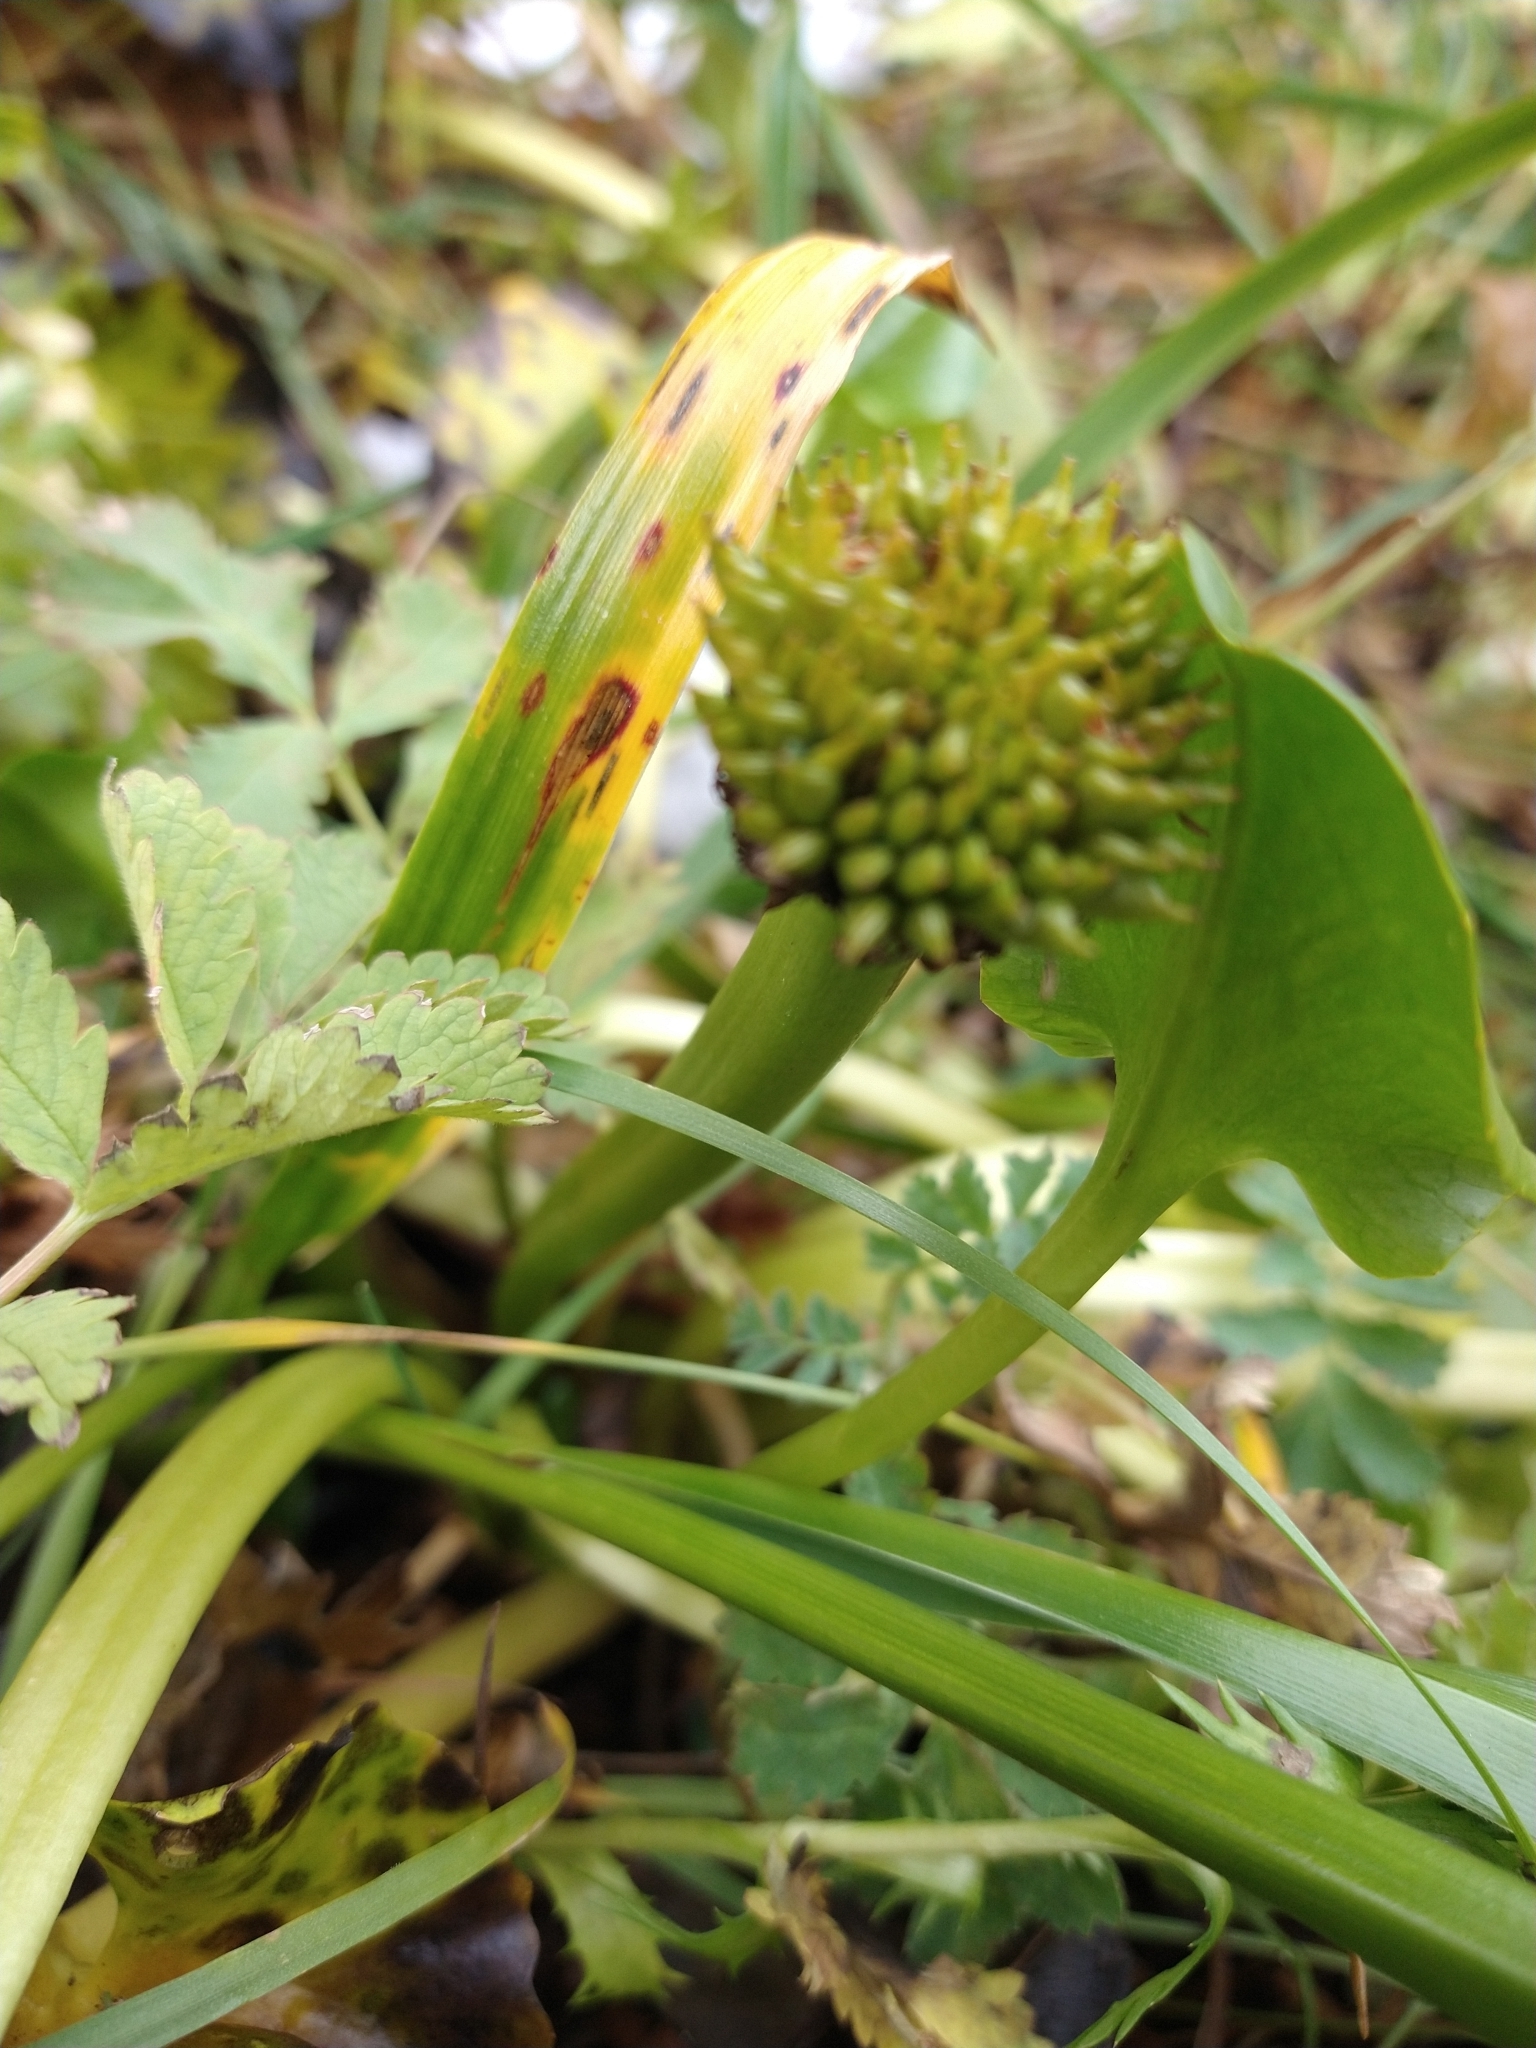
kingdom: Plantae
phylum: Tracheophyta
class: Magnoliopsida
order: Ranunculales
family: Ranunculaceae
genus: Caltha
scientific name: Caltha sagittata
